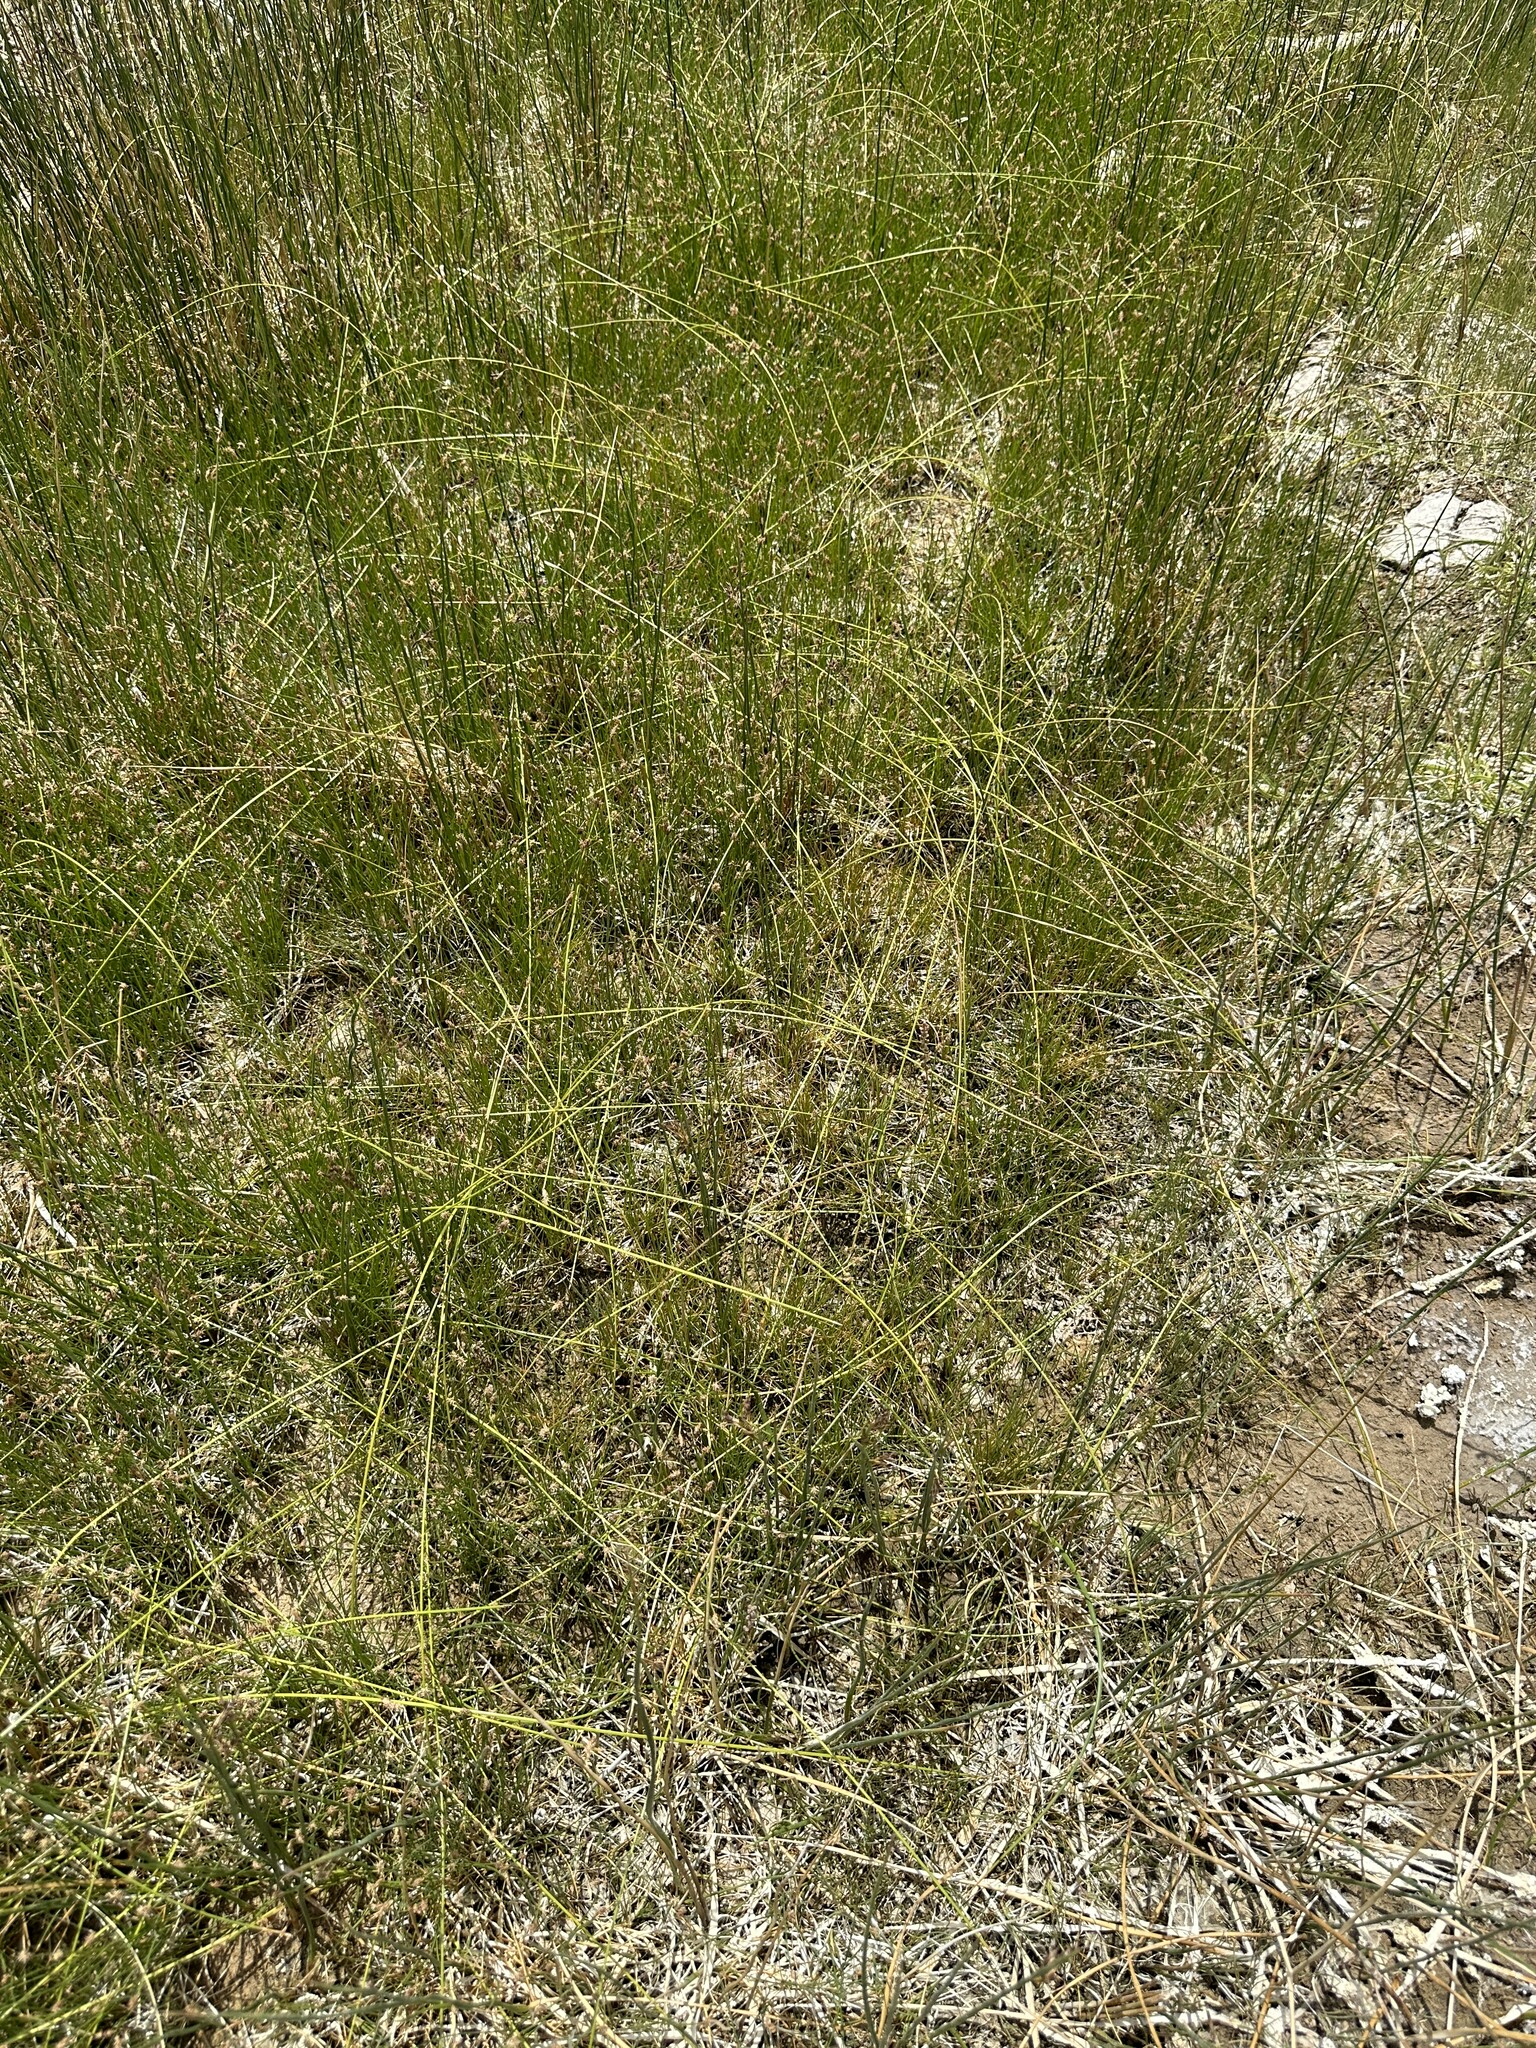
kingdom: Plantae
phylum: Tracheophyta
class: Liliopsida
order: Poales
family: Cyperaceae
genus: Eleocharis
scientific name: Eleocharis rostellata
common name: Walking sedge
